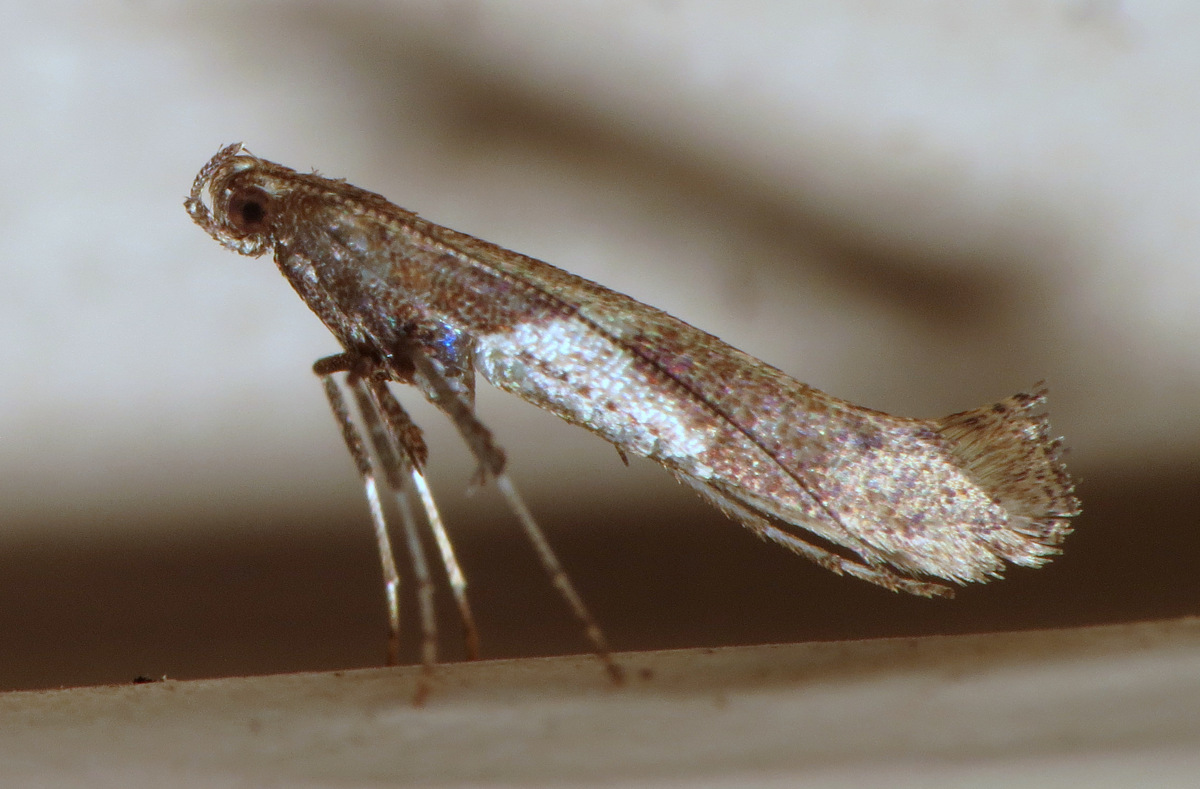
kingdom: Animalia
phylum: Arthropoda
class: Insecta
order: Lepidoptera
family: Gracillariidae
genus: Caloptilia
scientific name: Caloptilia stigmatella
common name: White-triangle slender
